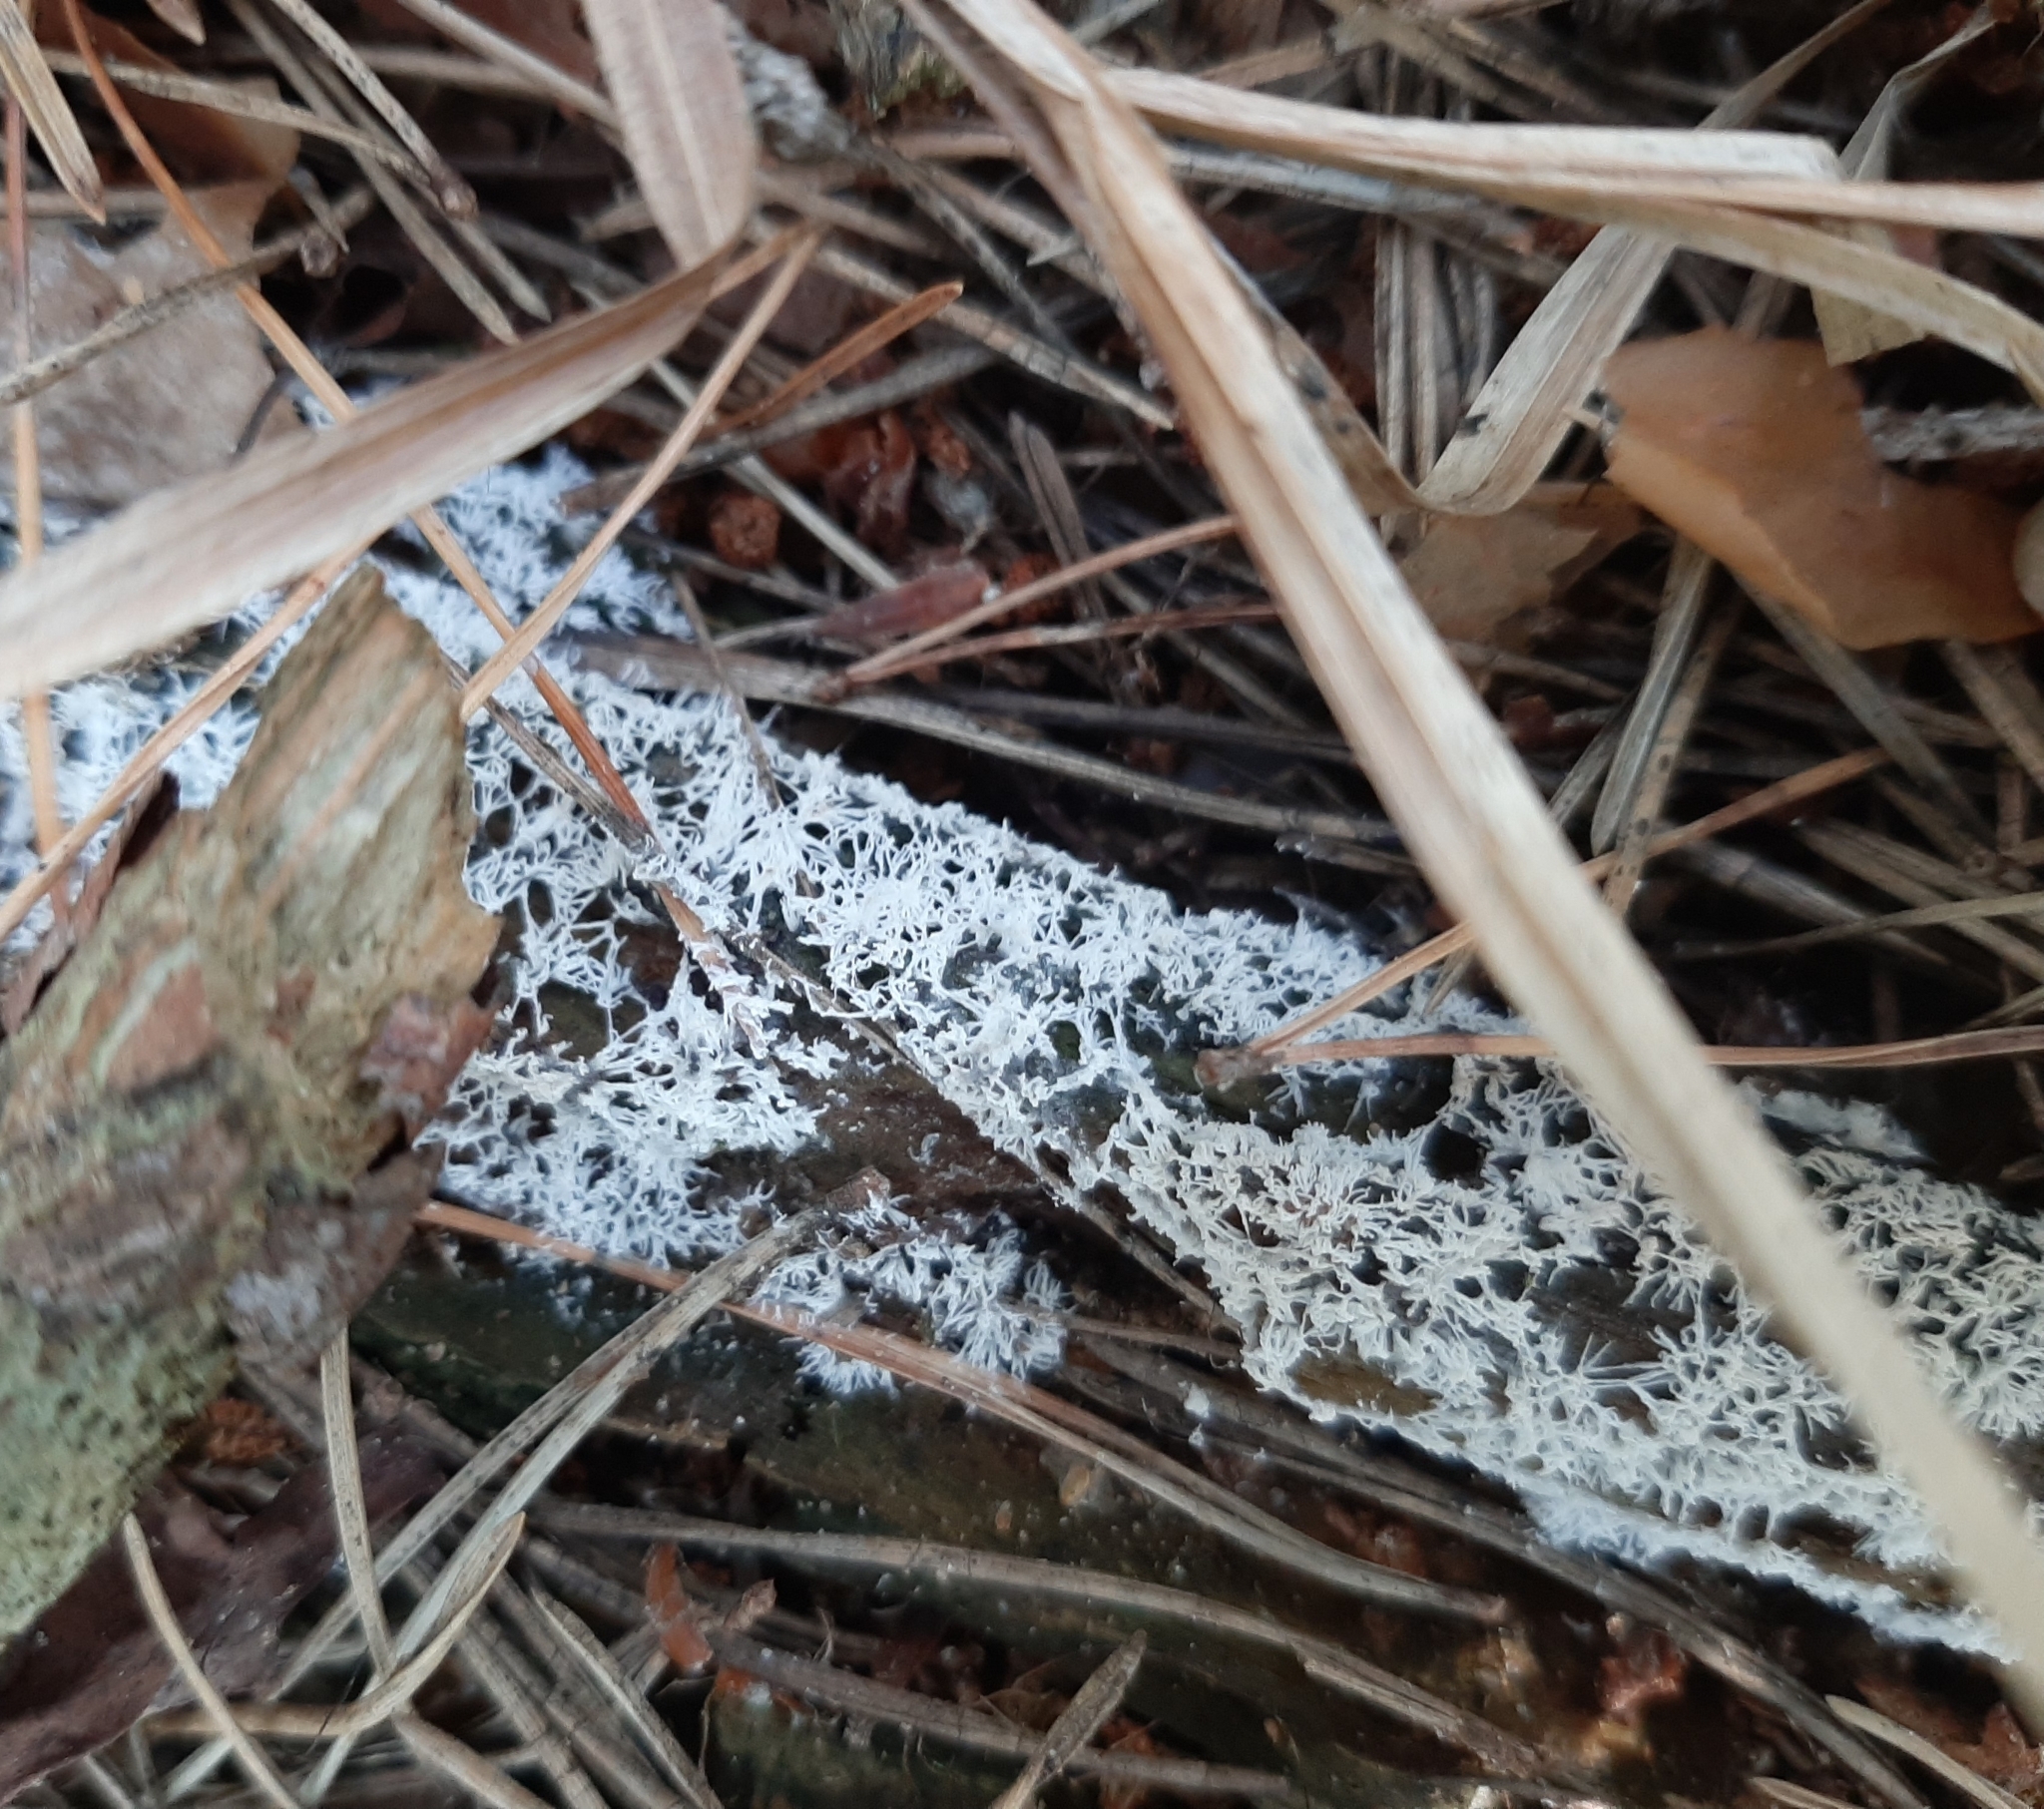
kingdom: Protozoa
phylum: Mycetozoa
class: Protosteliomycetes
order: Ceratiomyxales
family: Ceratiomyxaceae
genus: Ceratiomyxa
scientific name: Ceratiomyxa fruticulosa
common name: Honeycomb coral slime mold
